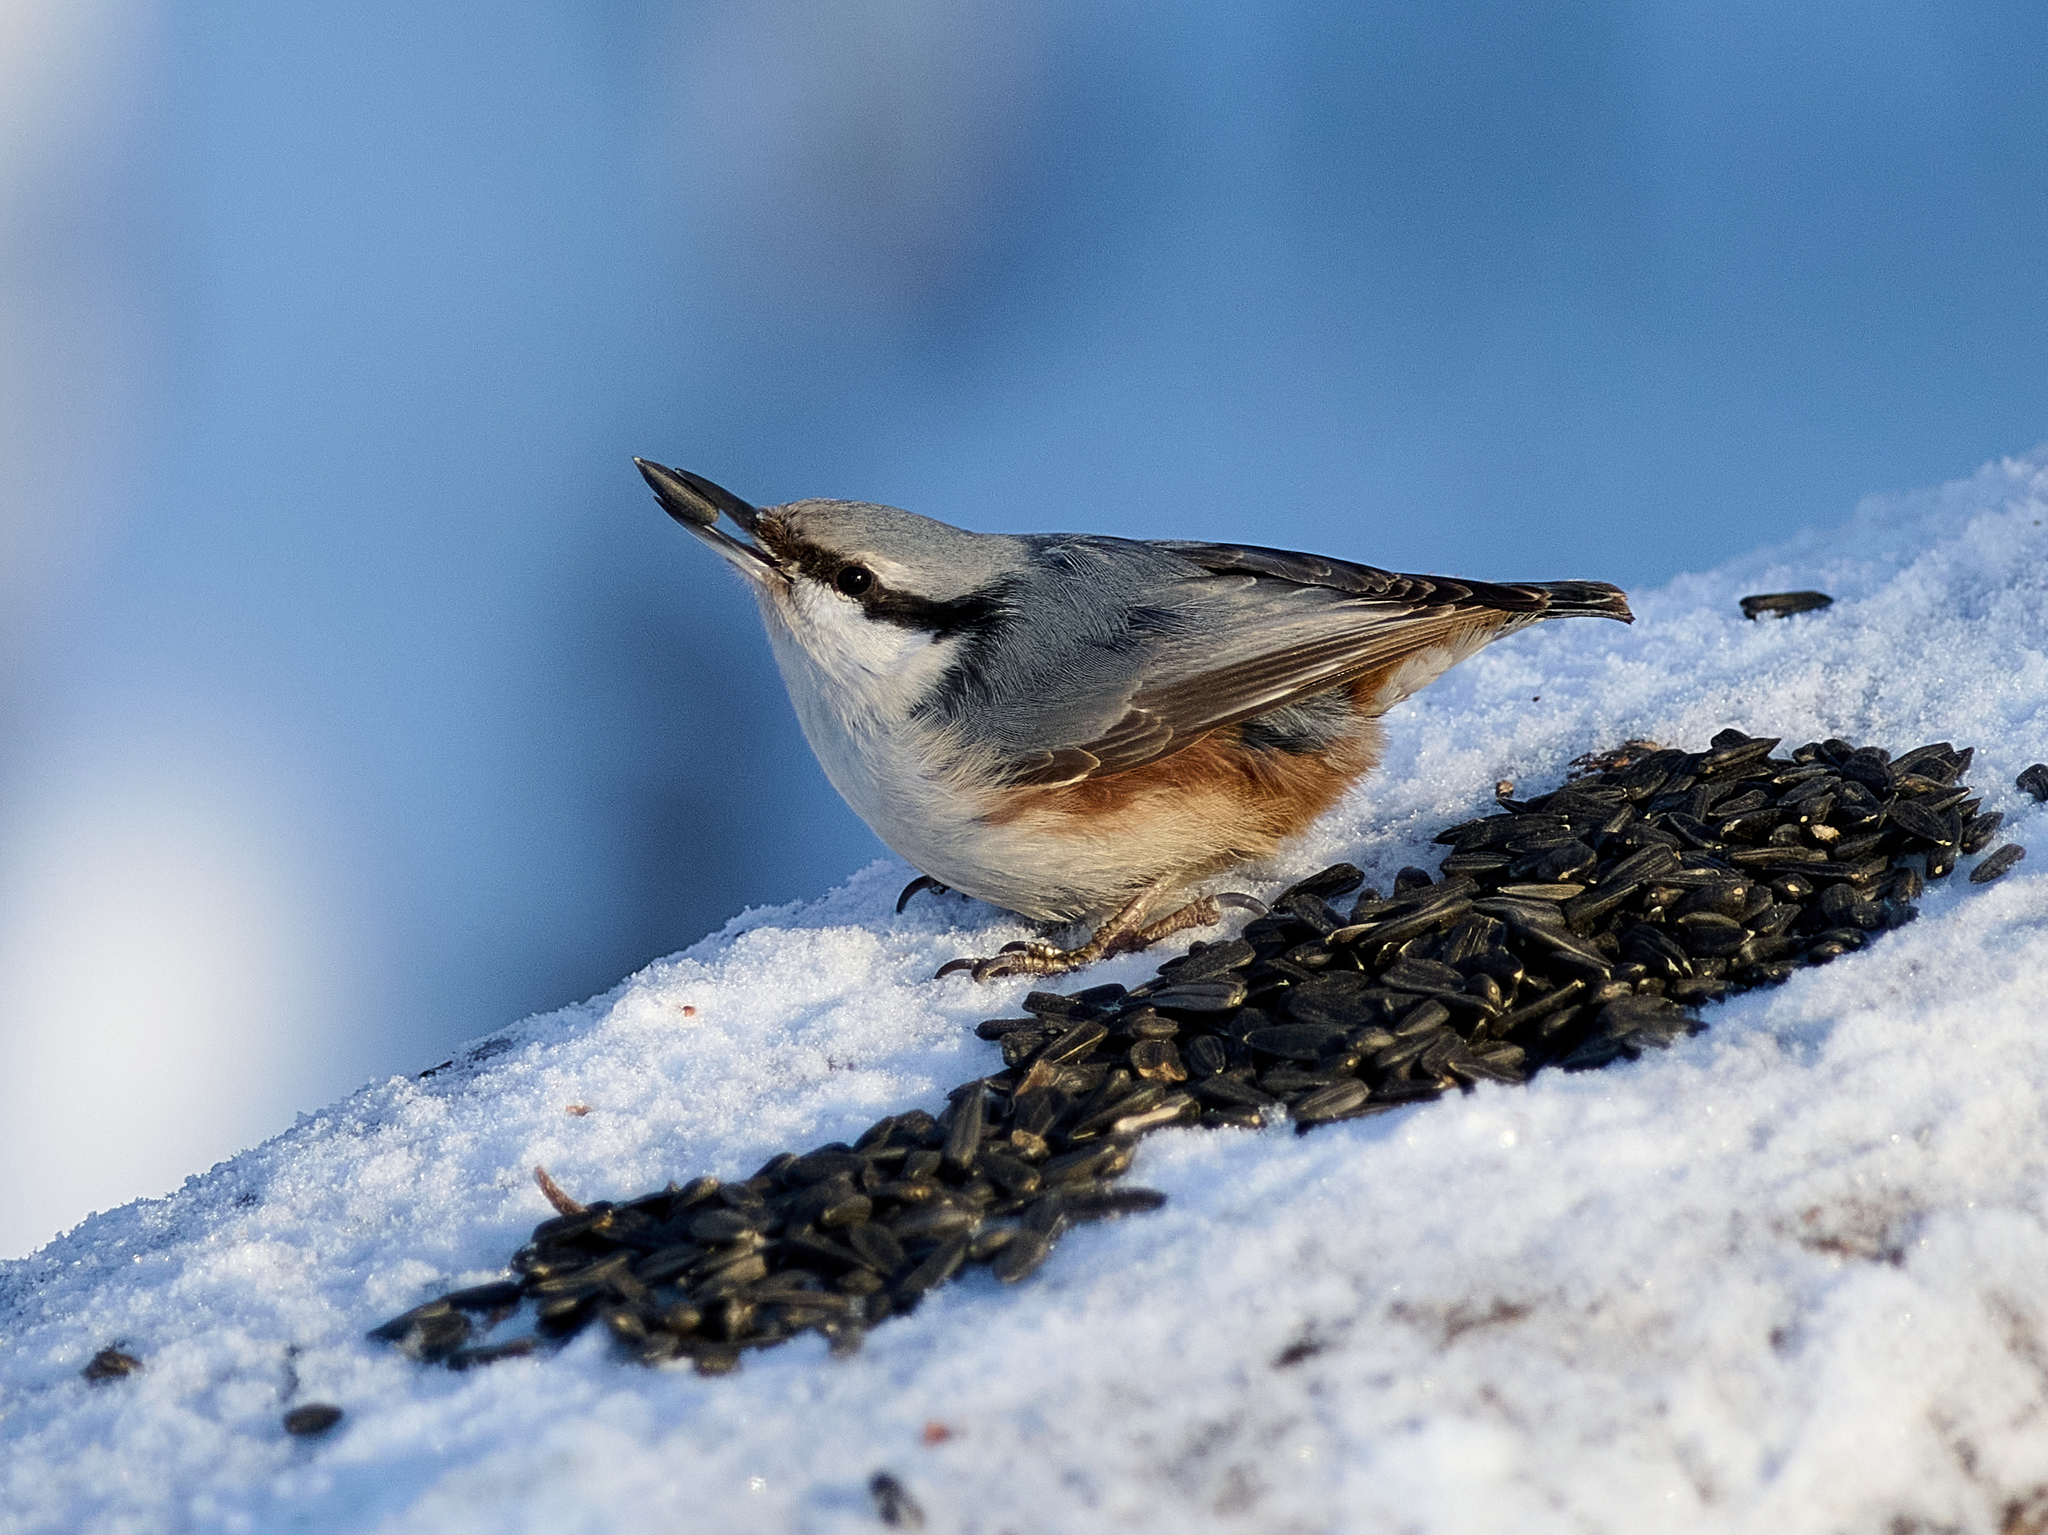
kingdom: Animalia
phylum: Chordata
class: Aves
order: Passeriformes
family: Sittidae
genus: Sitta
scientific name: Sitta europaea
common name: Eurasian nuthatch
